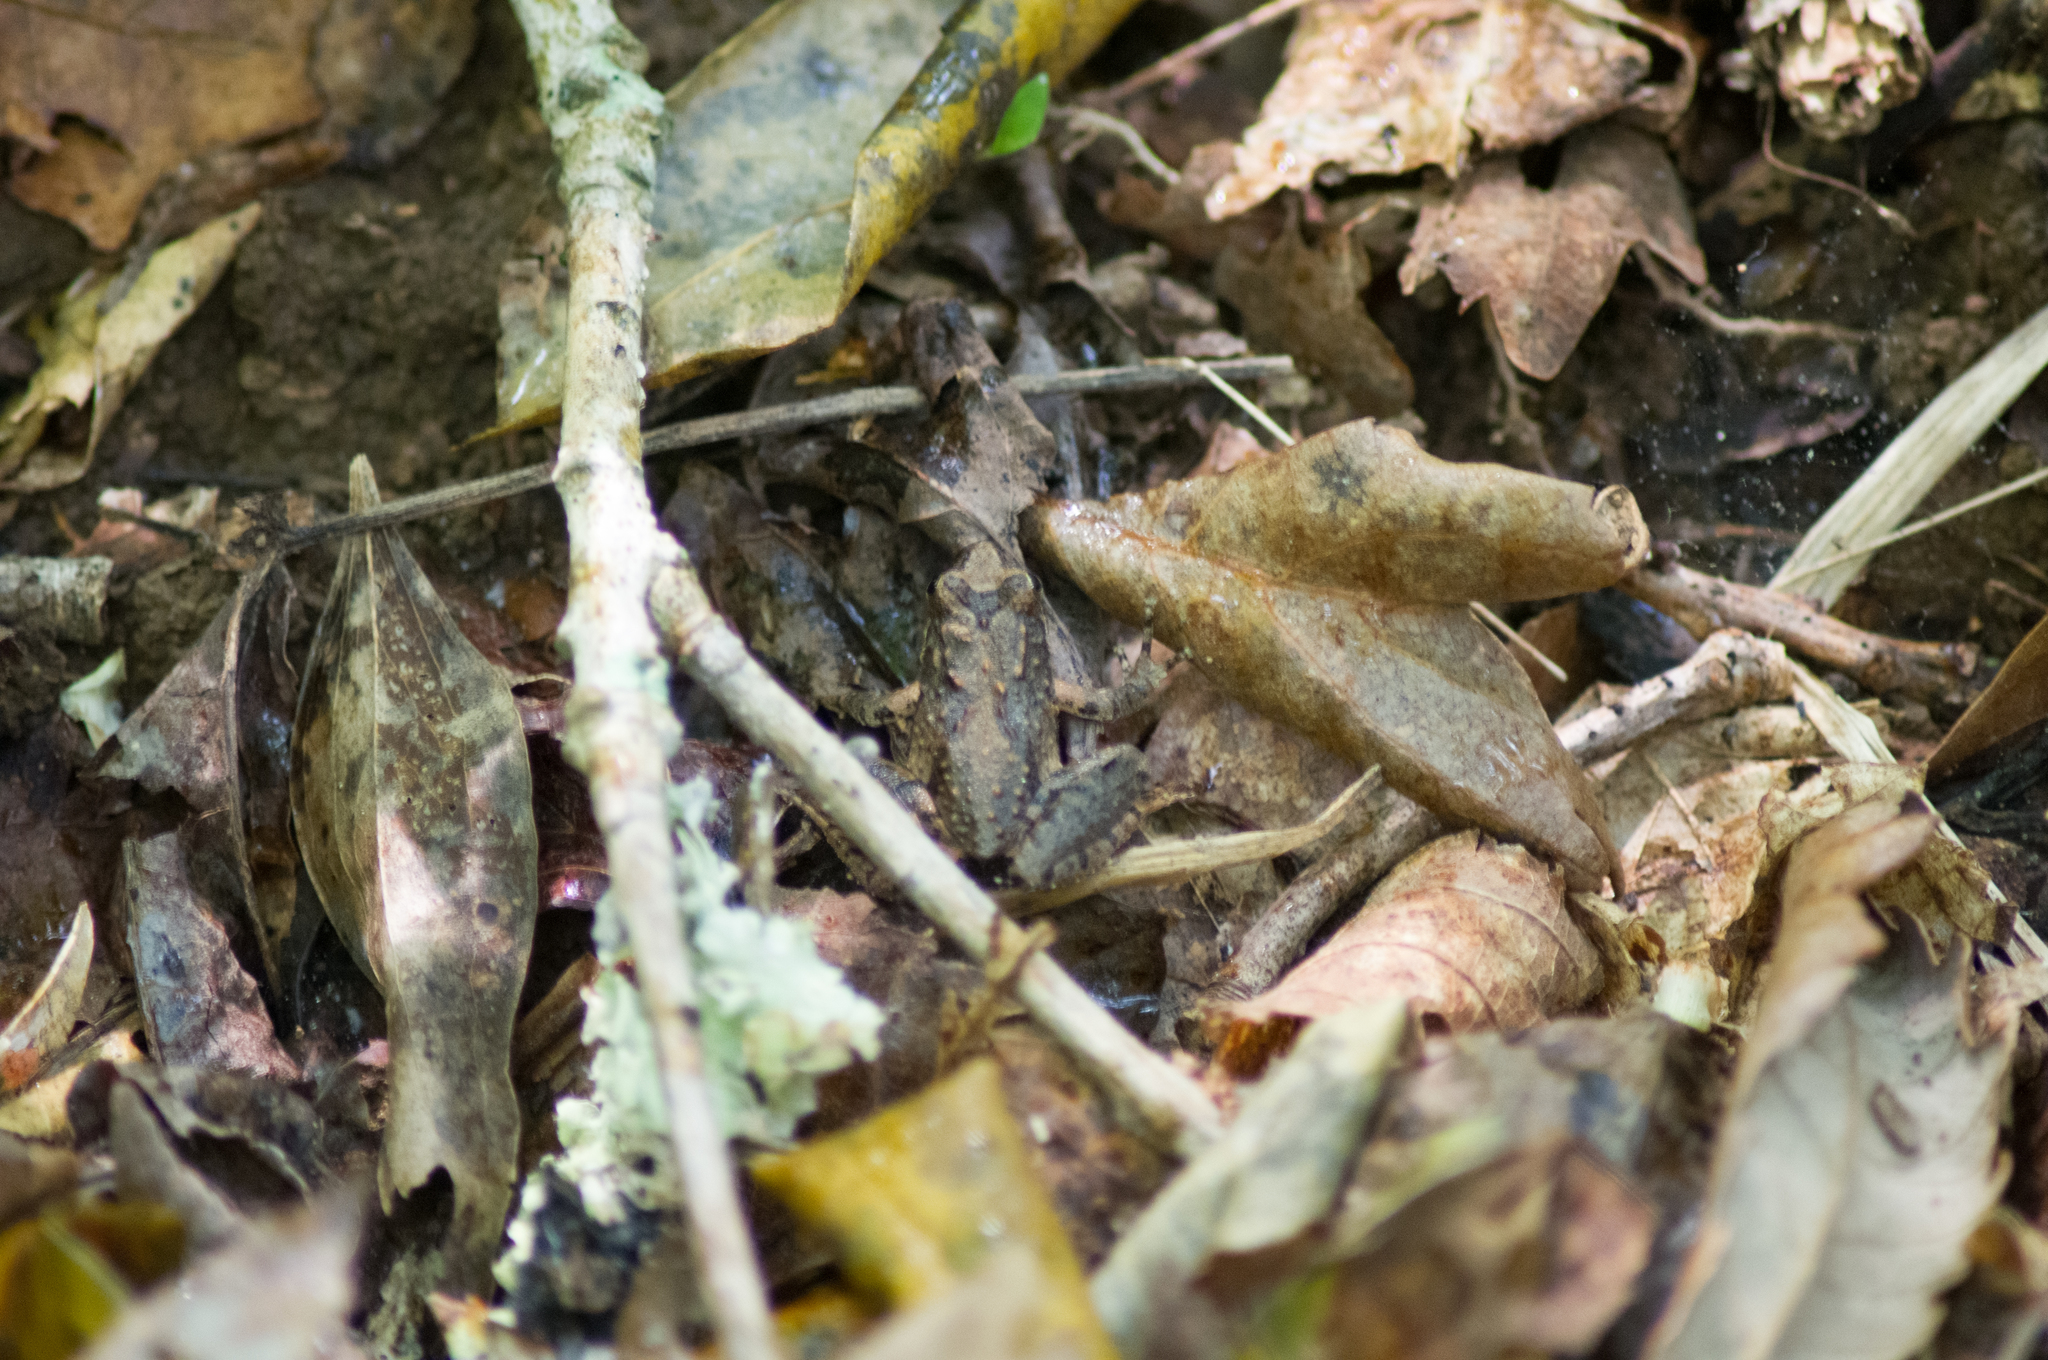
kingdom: Animalia
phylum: Chordata
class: Amphibia
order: Anura
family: Hylidae
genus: Acris
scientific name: Acris blanchardi
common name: Blanchard's cricket frog
